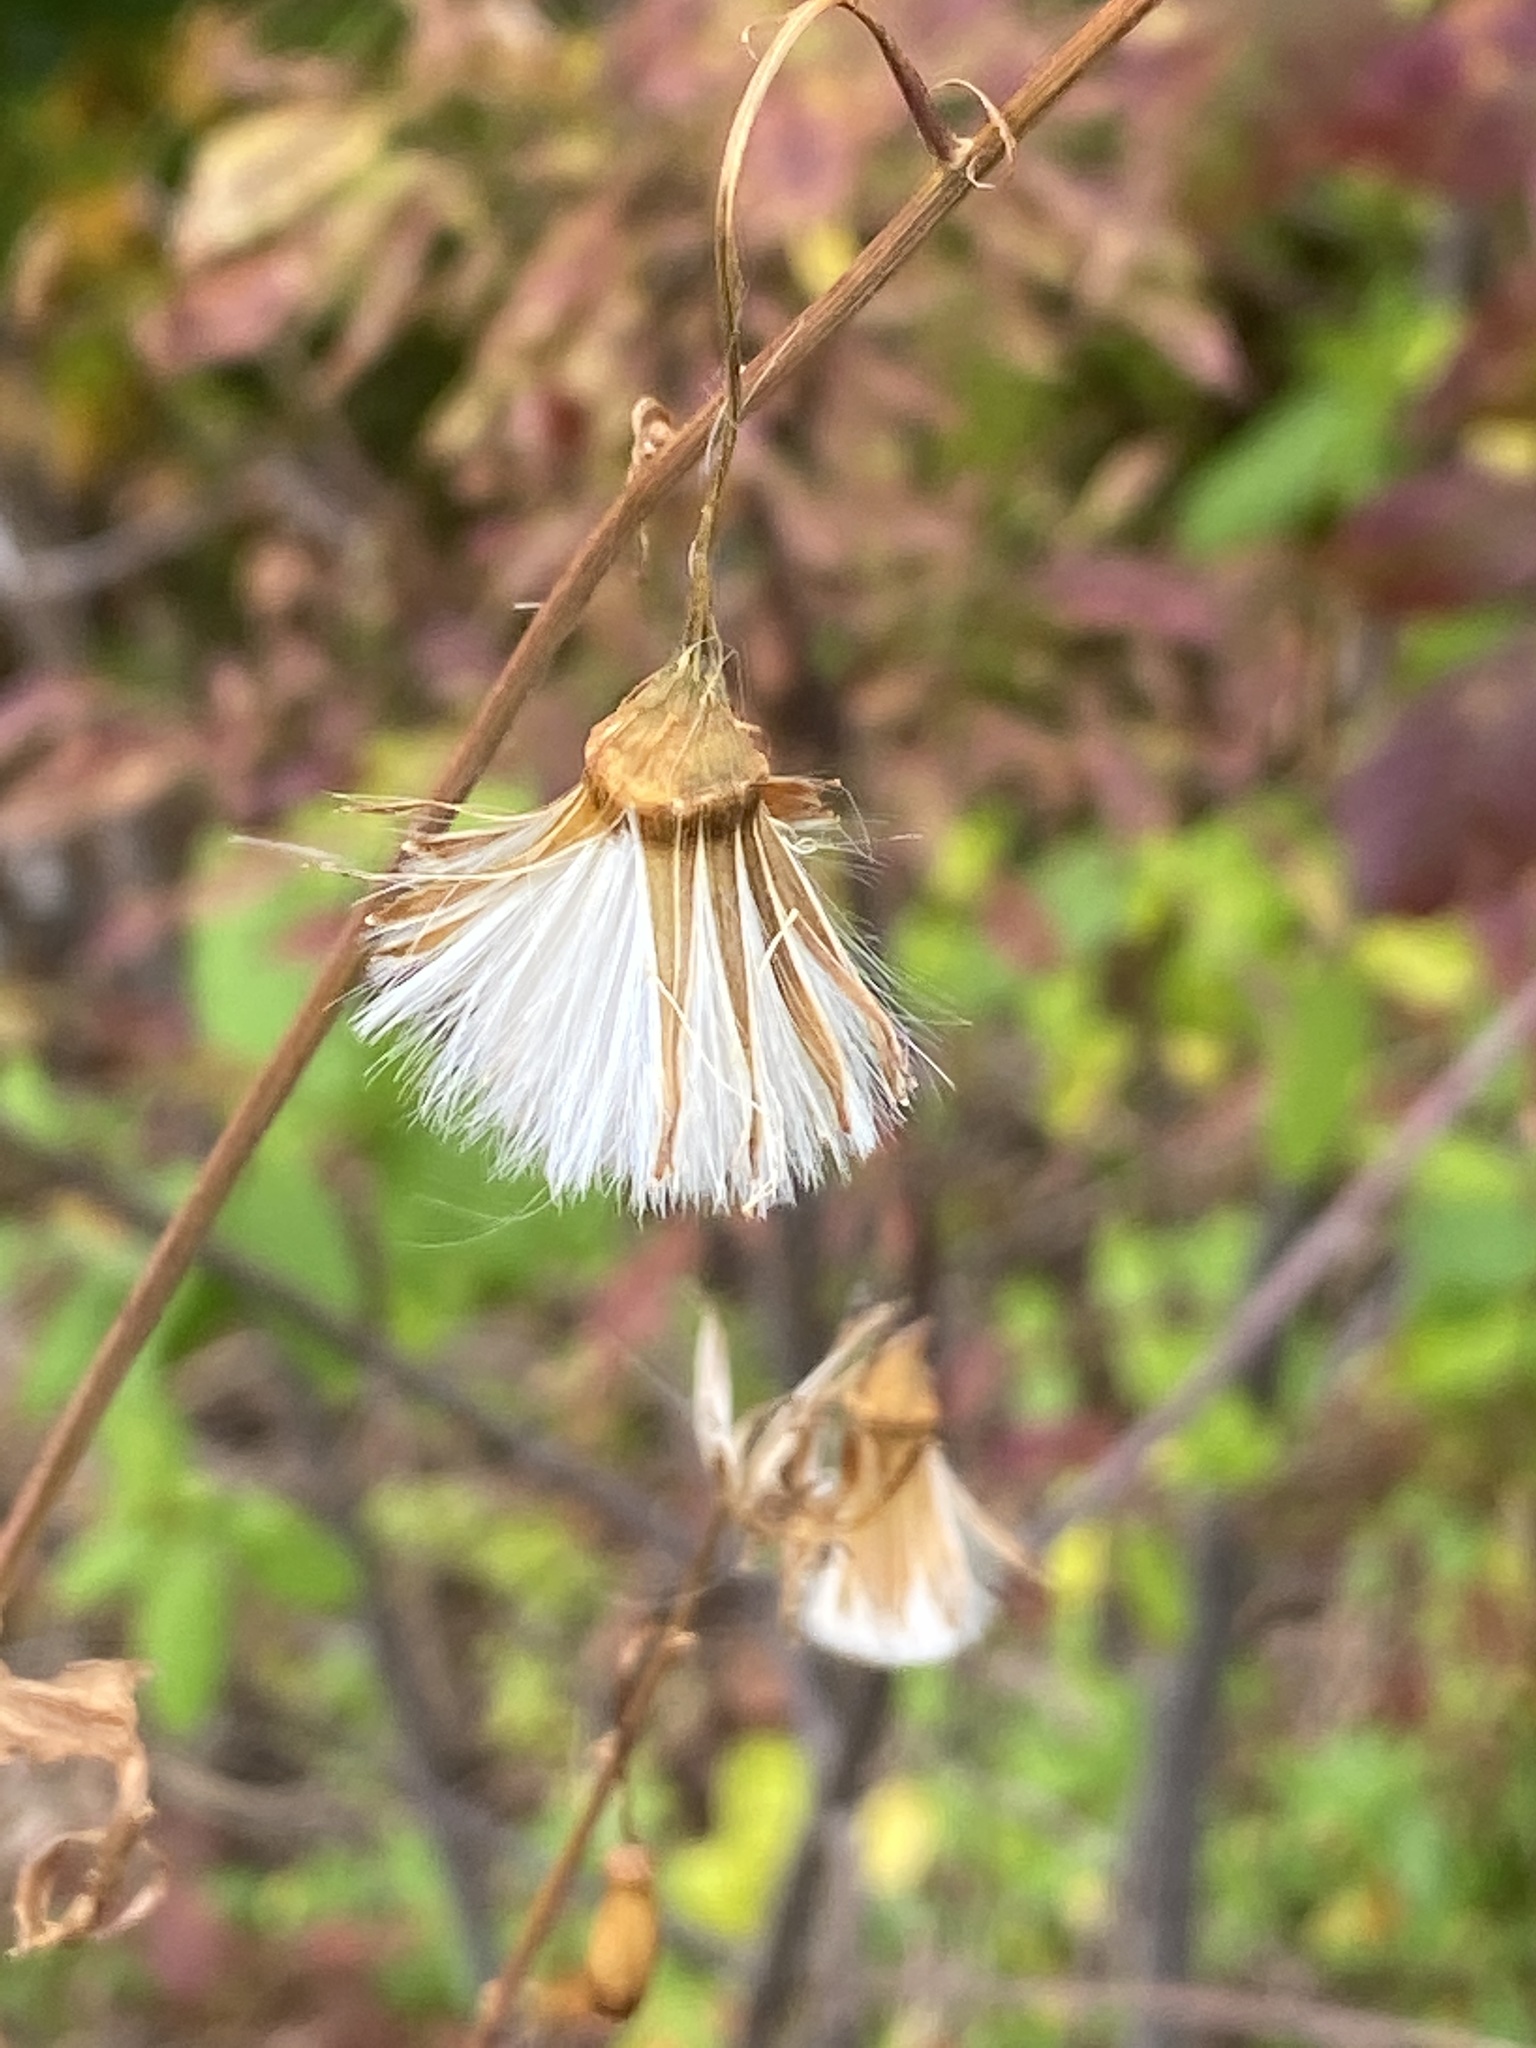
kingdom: Plantae
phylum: Tracheophyta
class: Magnoliopsida
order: Asterales
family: Asteraceae
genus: Erechtites
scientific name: Erechtites hieraciifolius
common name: American burnweed
